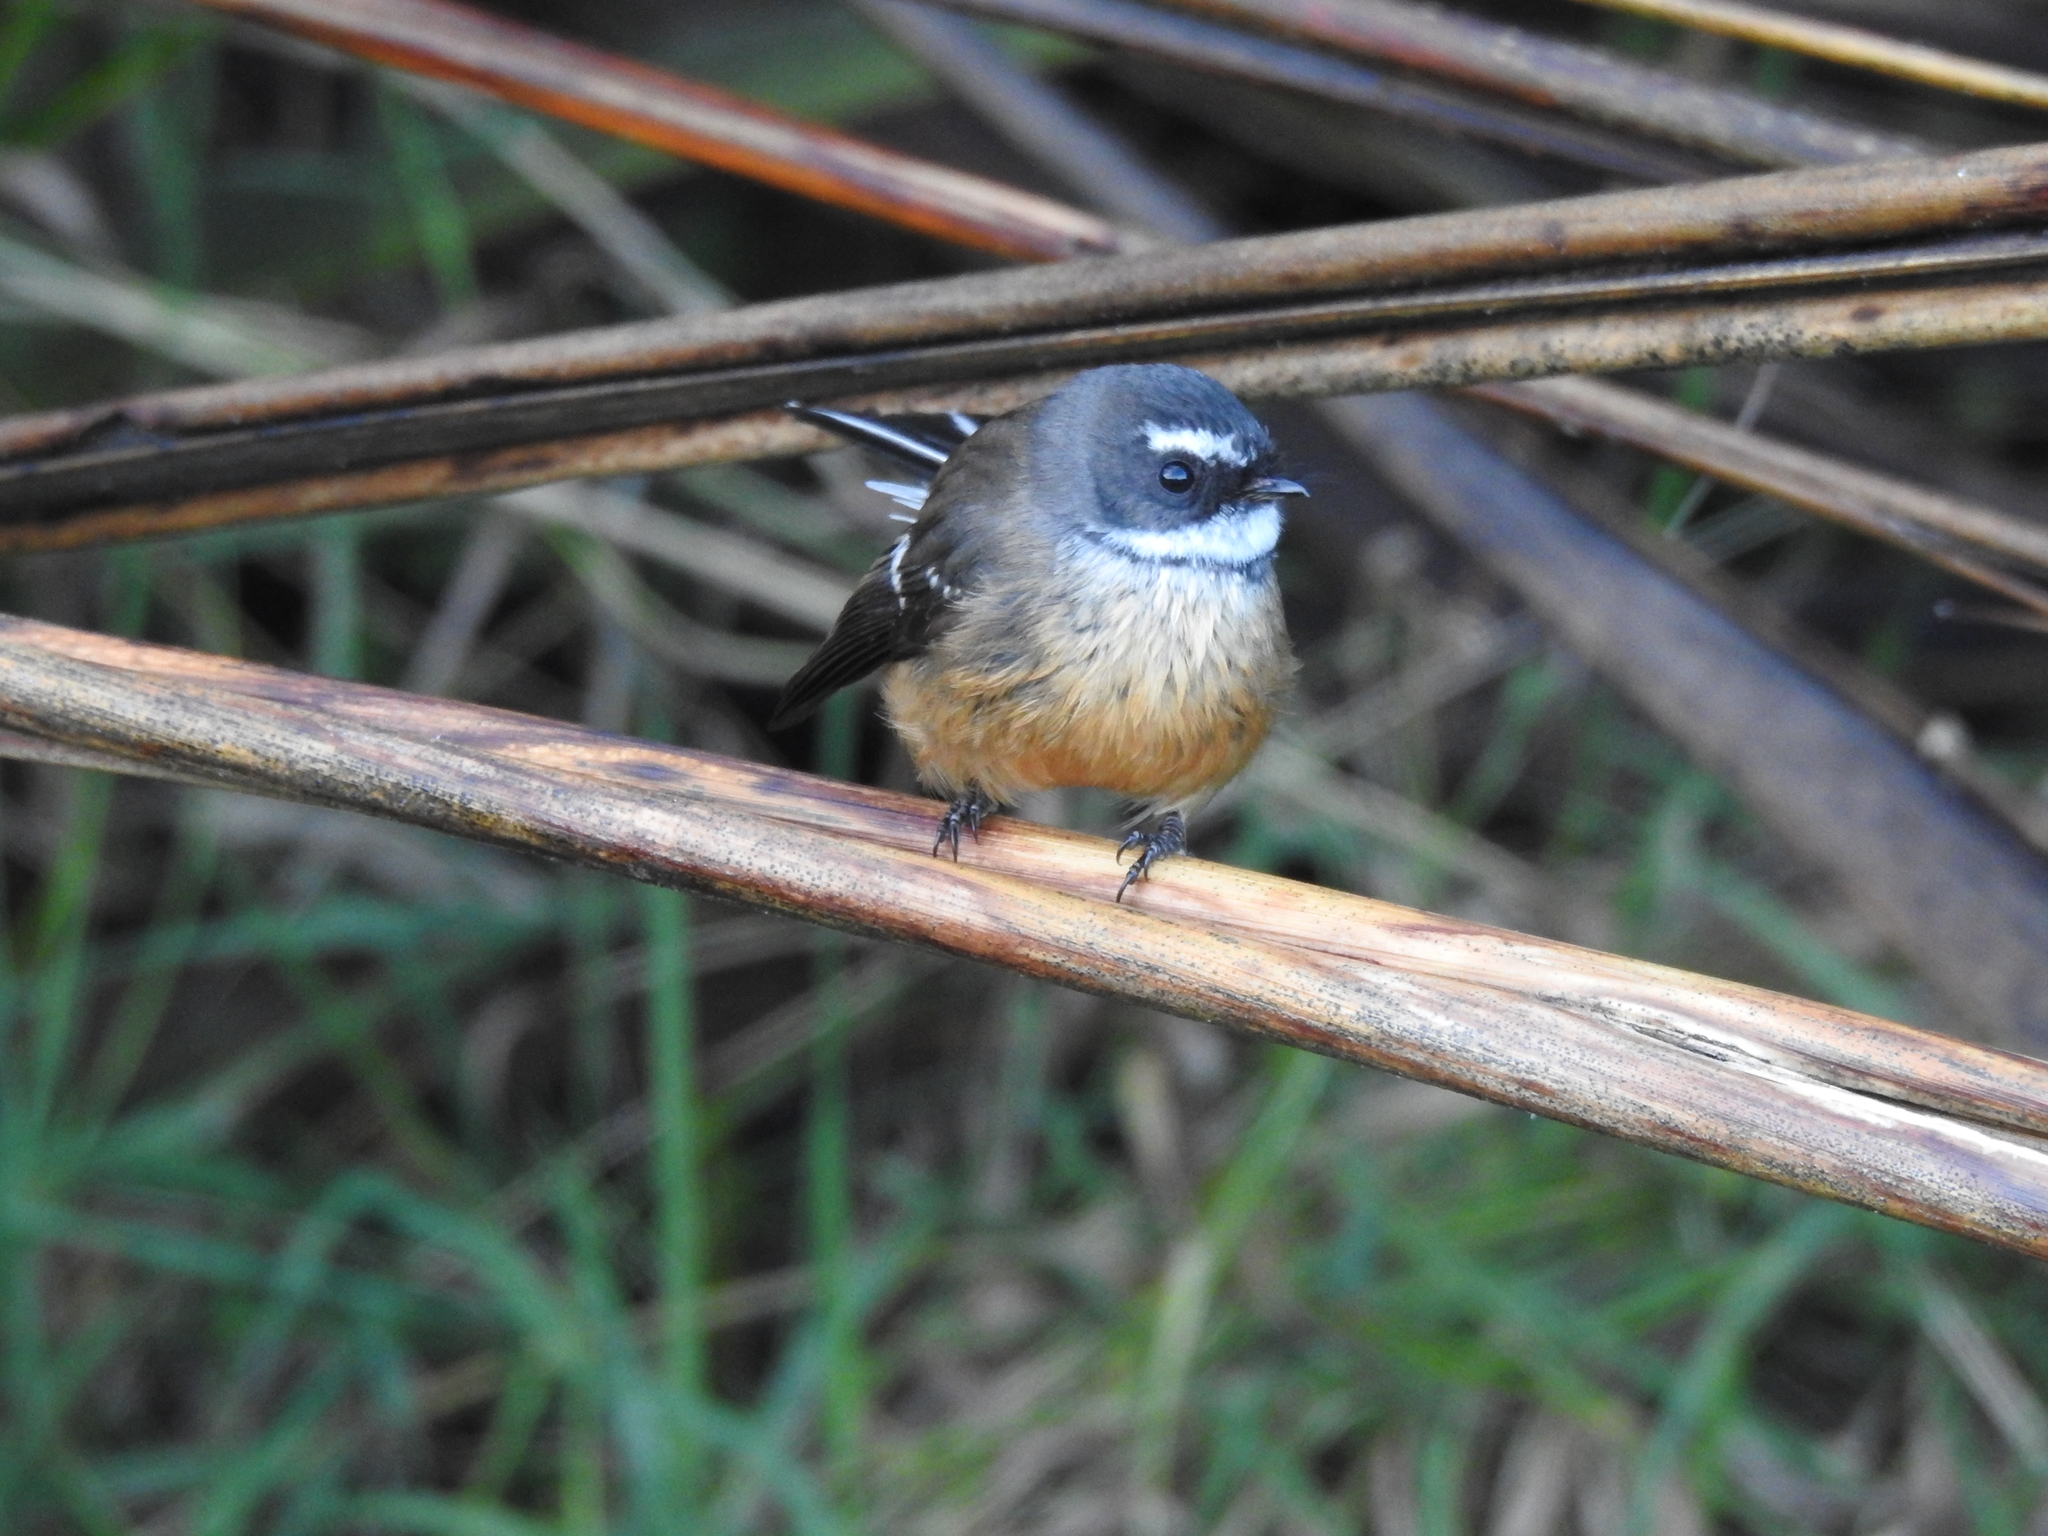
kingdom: Animalia
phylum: Chordata
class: Aves
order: Passeriformes
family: Rhipiduridae
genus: Rhipidura
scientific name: Rhipidura fuliginosa
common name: New zealand fantail
